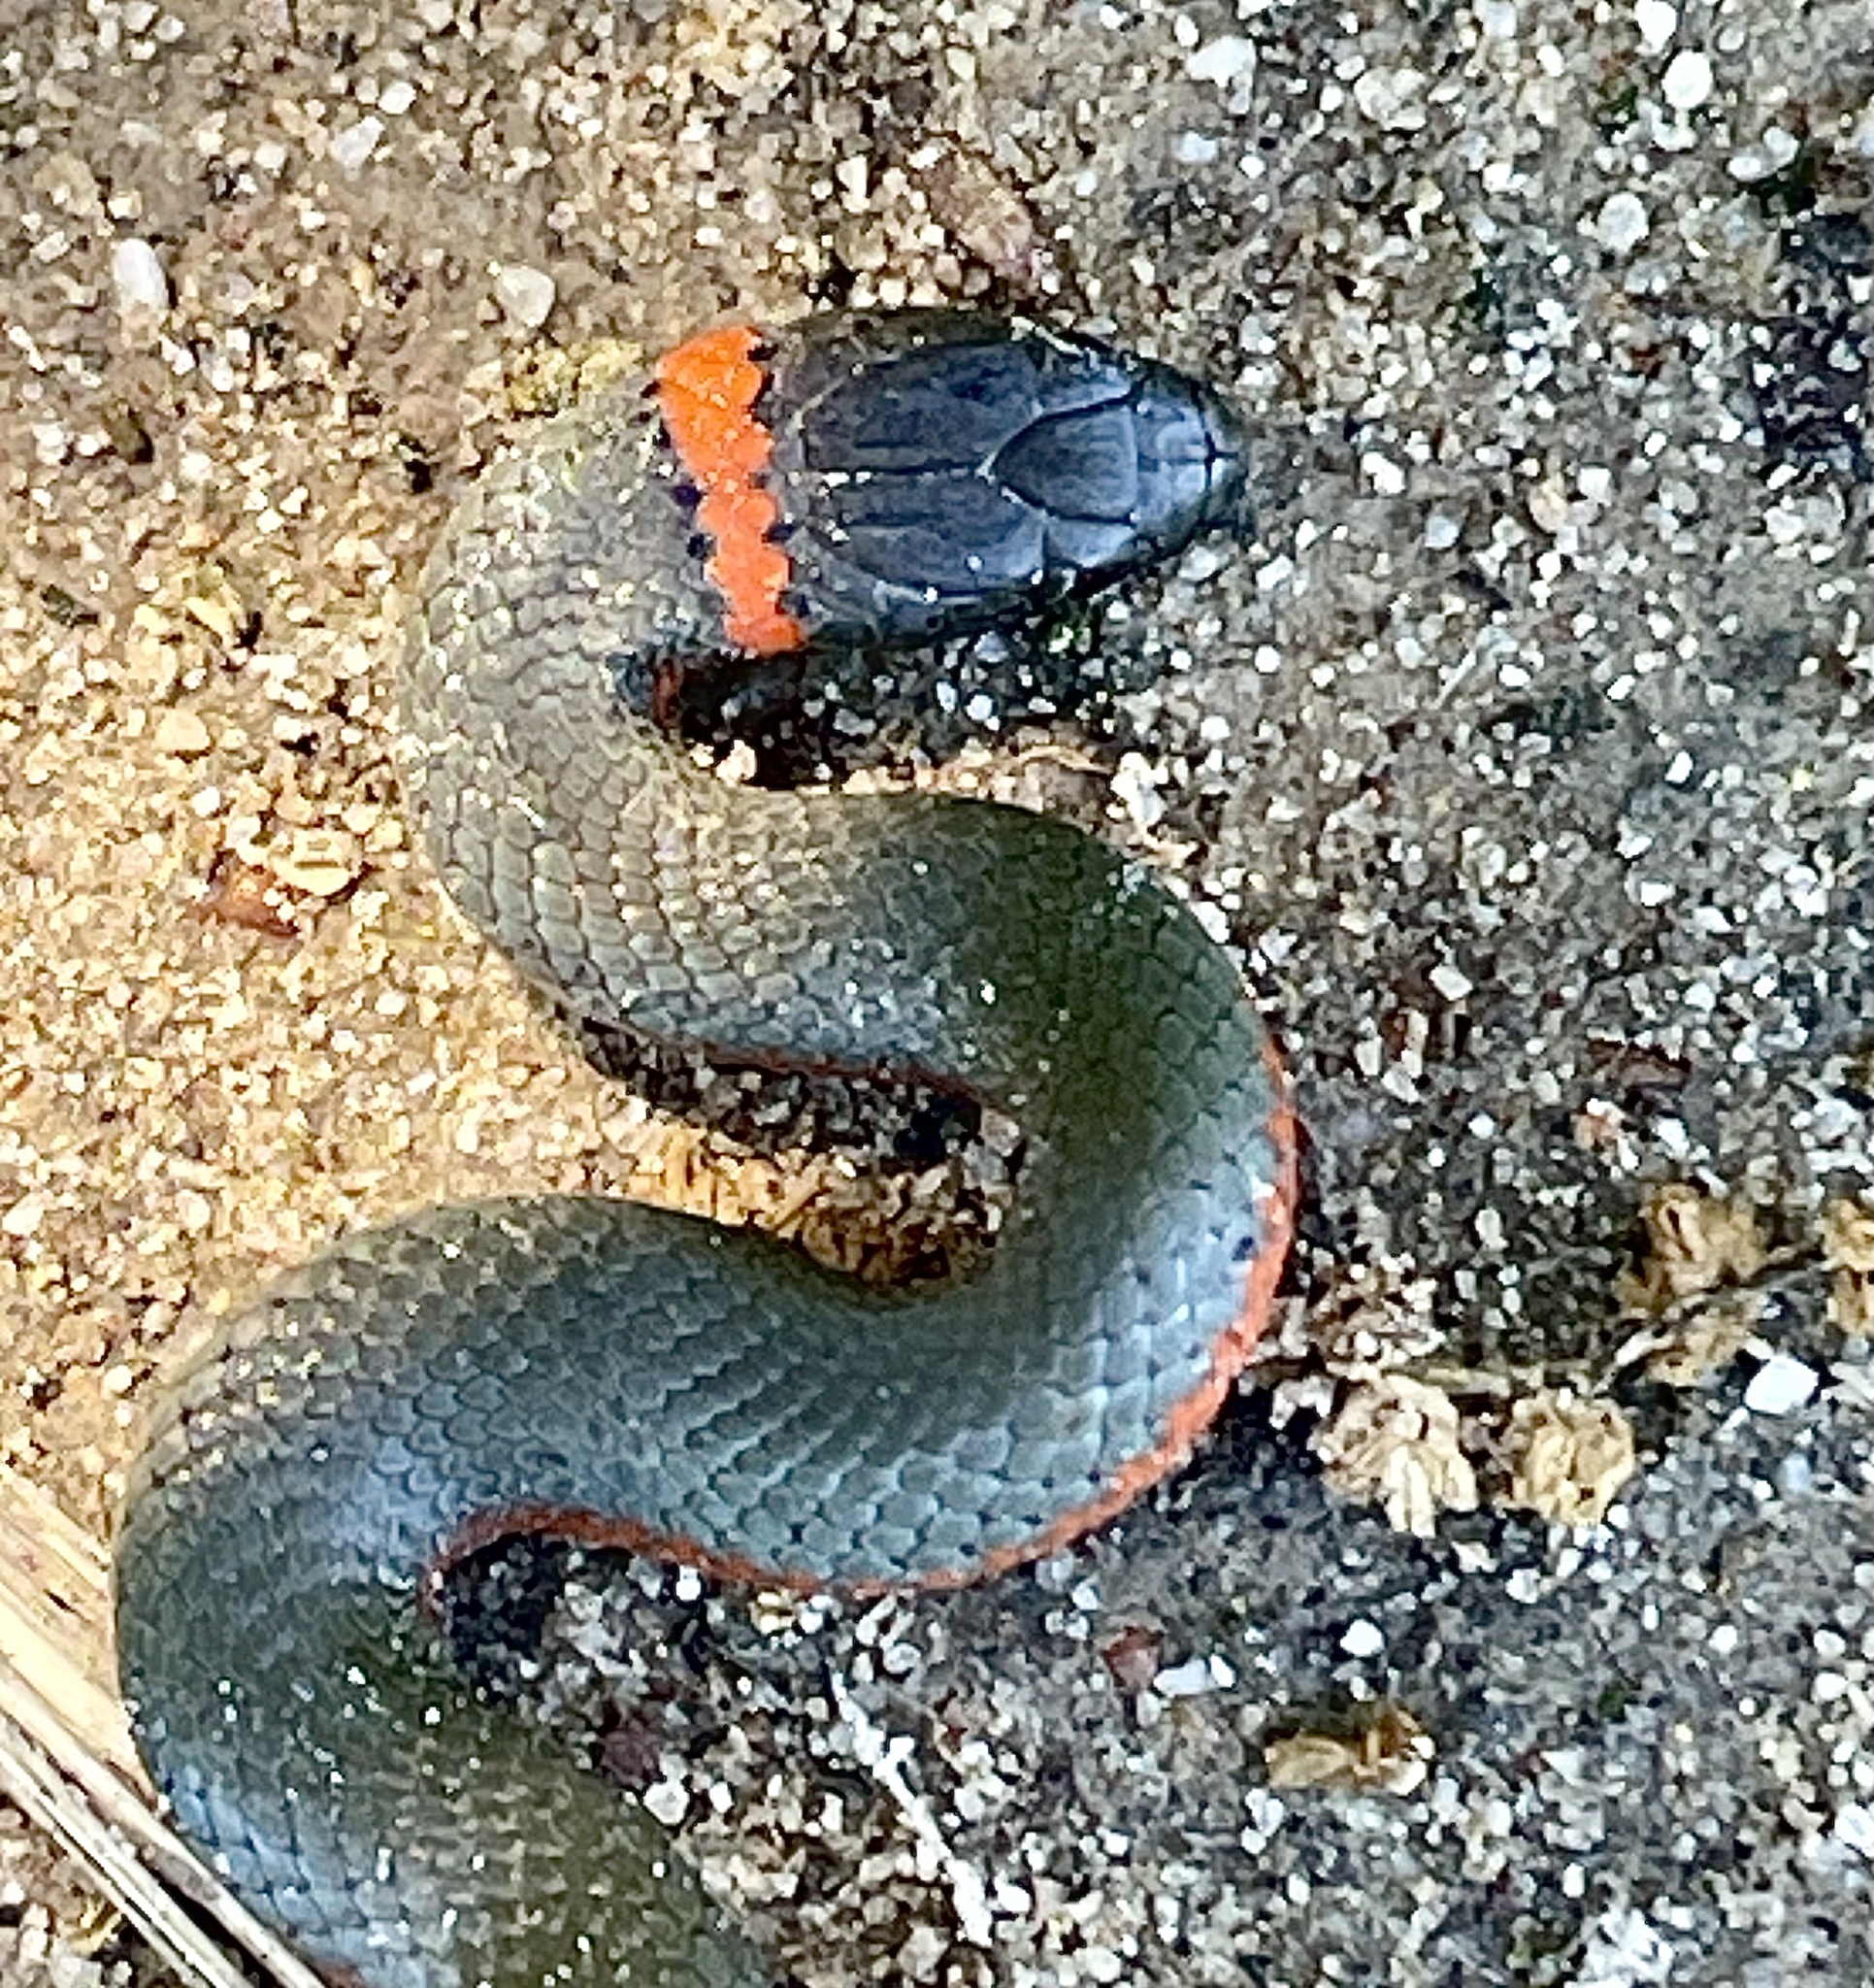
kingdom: Animalia
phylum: Chordata
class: Squamata
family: Colubridae
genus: Diadophis
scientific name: Diadophis punctatus
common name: Ringneck snake
